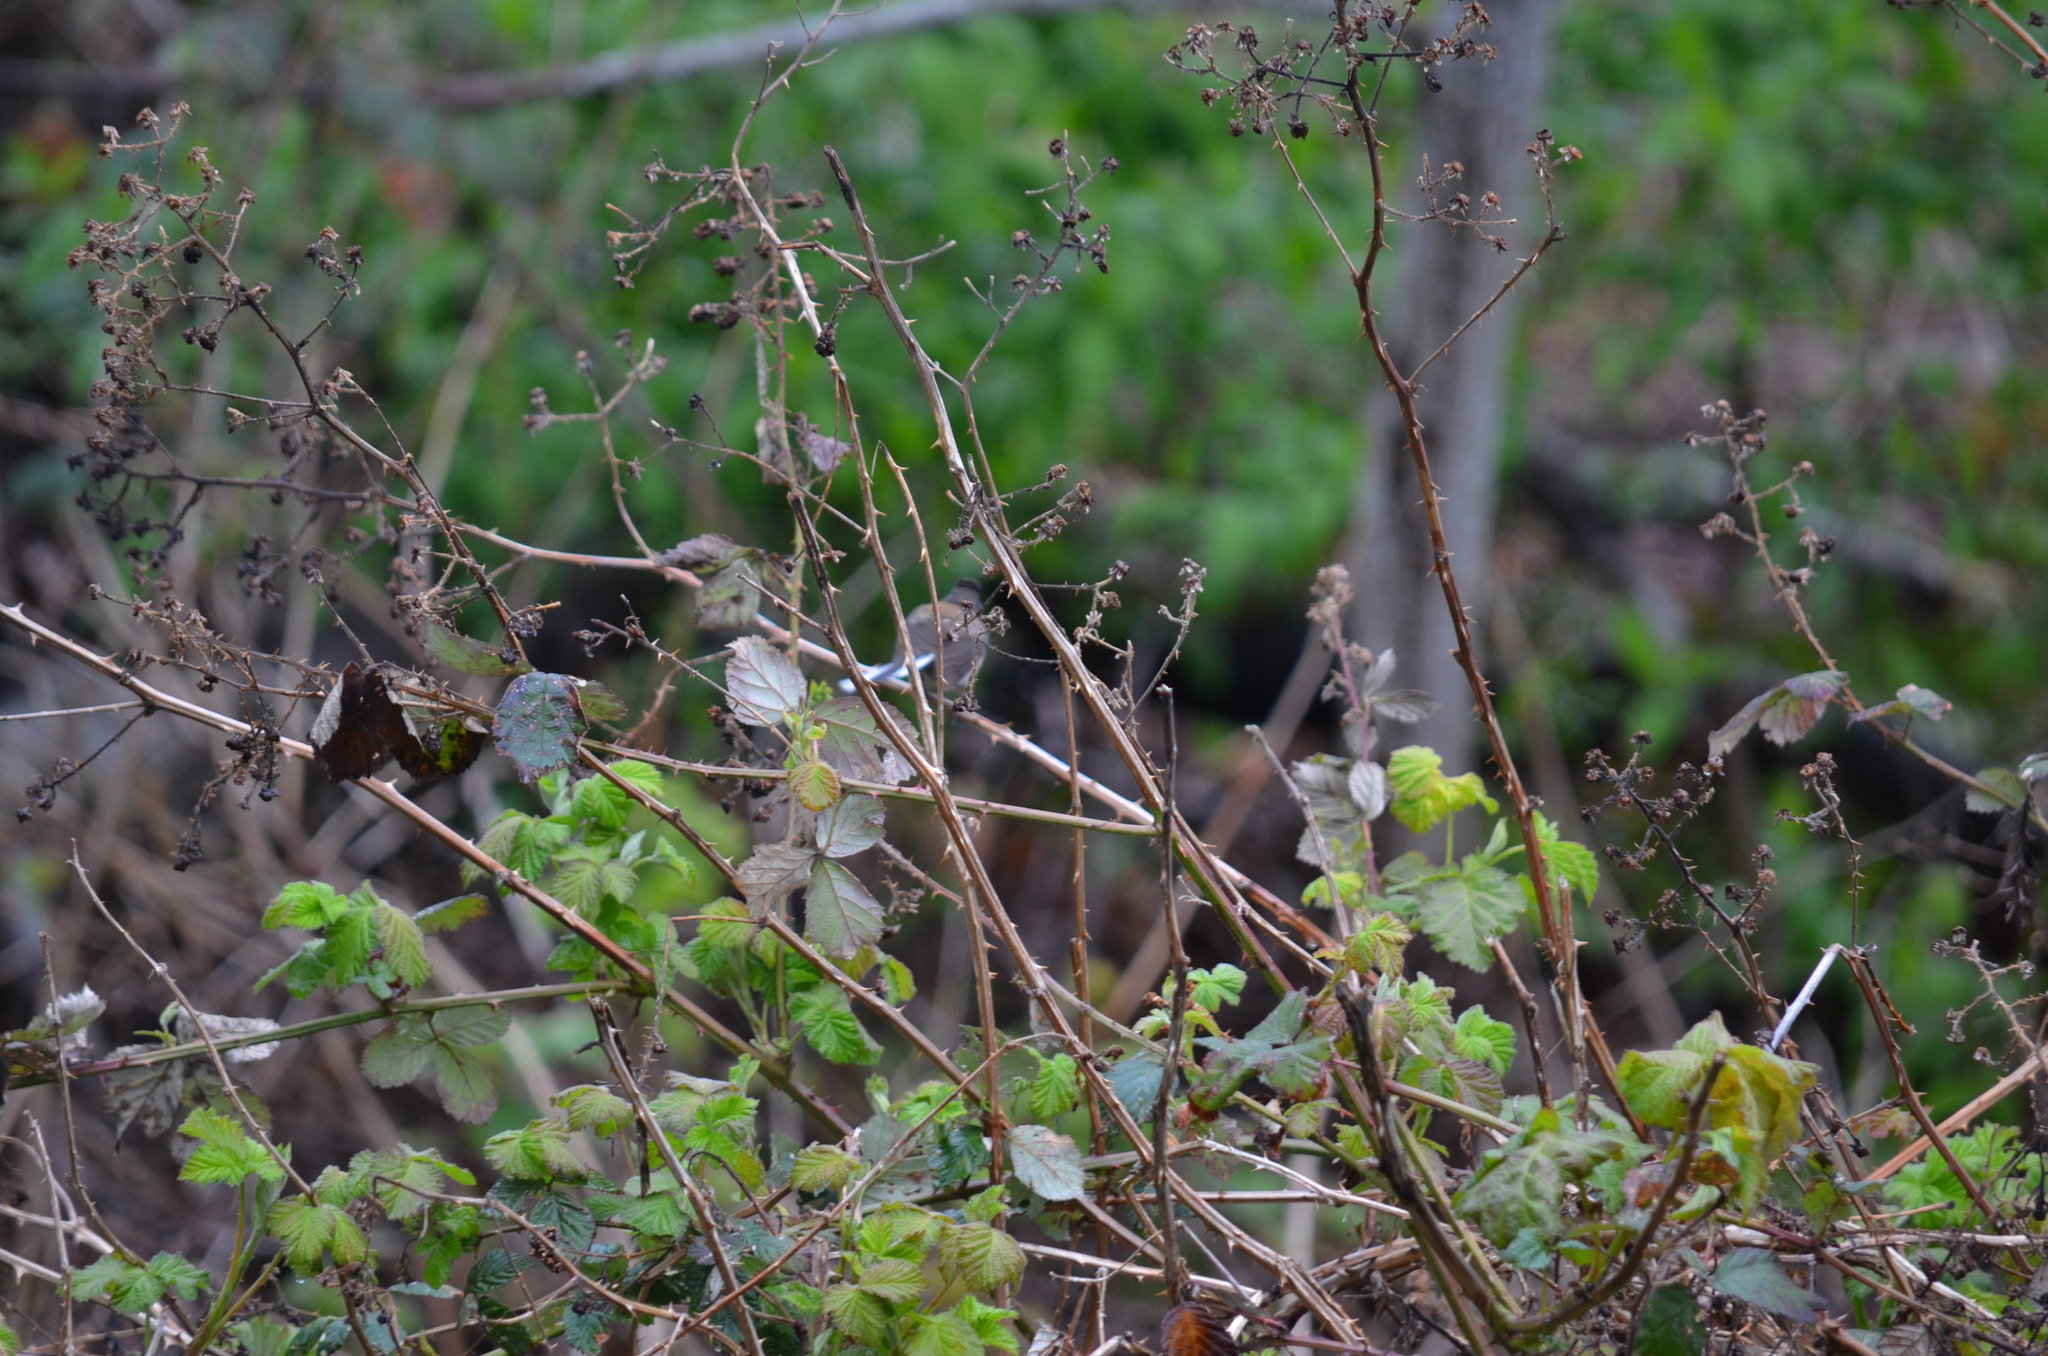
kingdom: Animalia
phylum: Chordata
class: Aves
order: Passeriformes
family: Passerellidae
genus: Junco
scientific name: Junco hyemalis
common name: Dark-eyed junco
